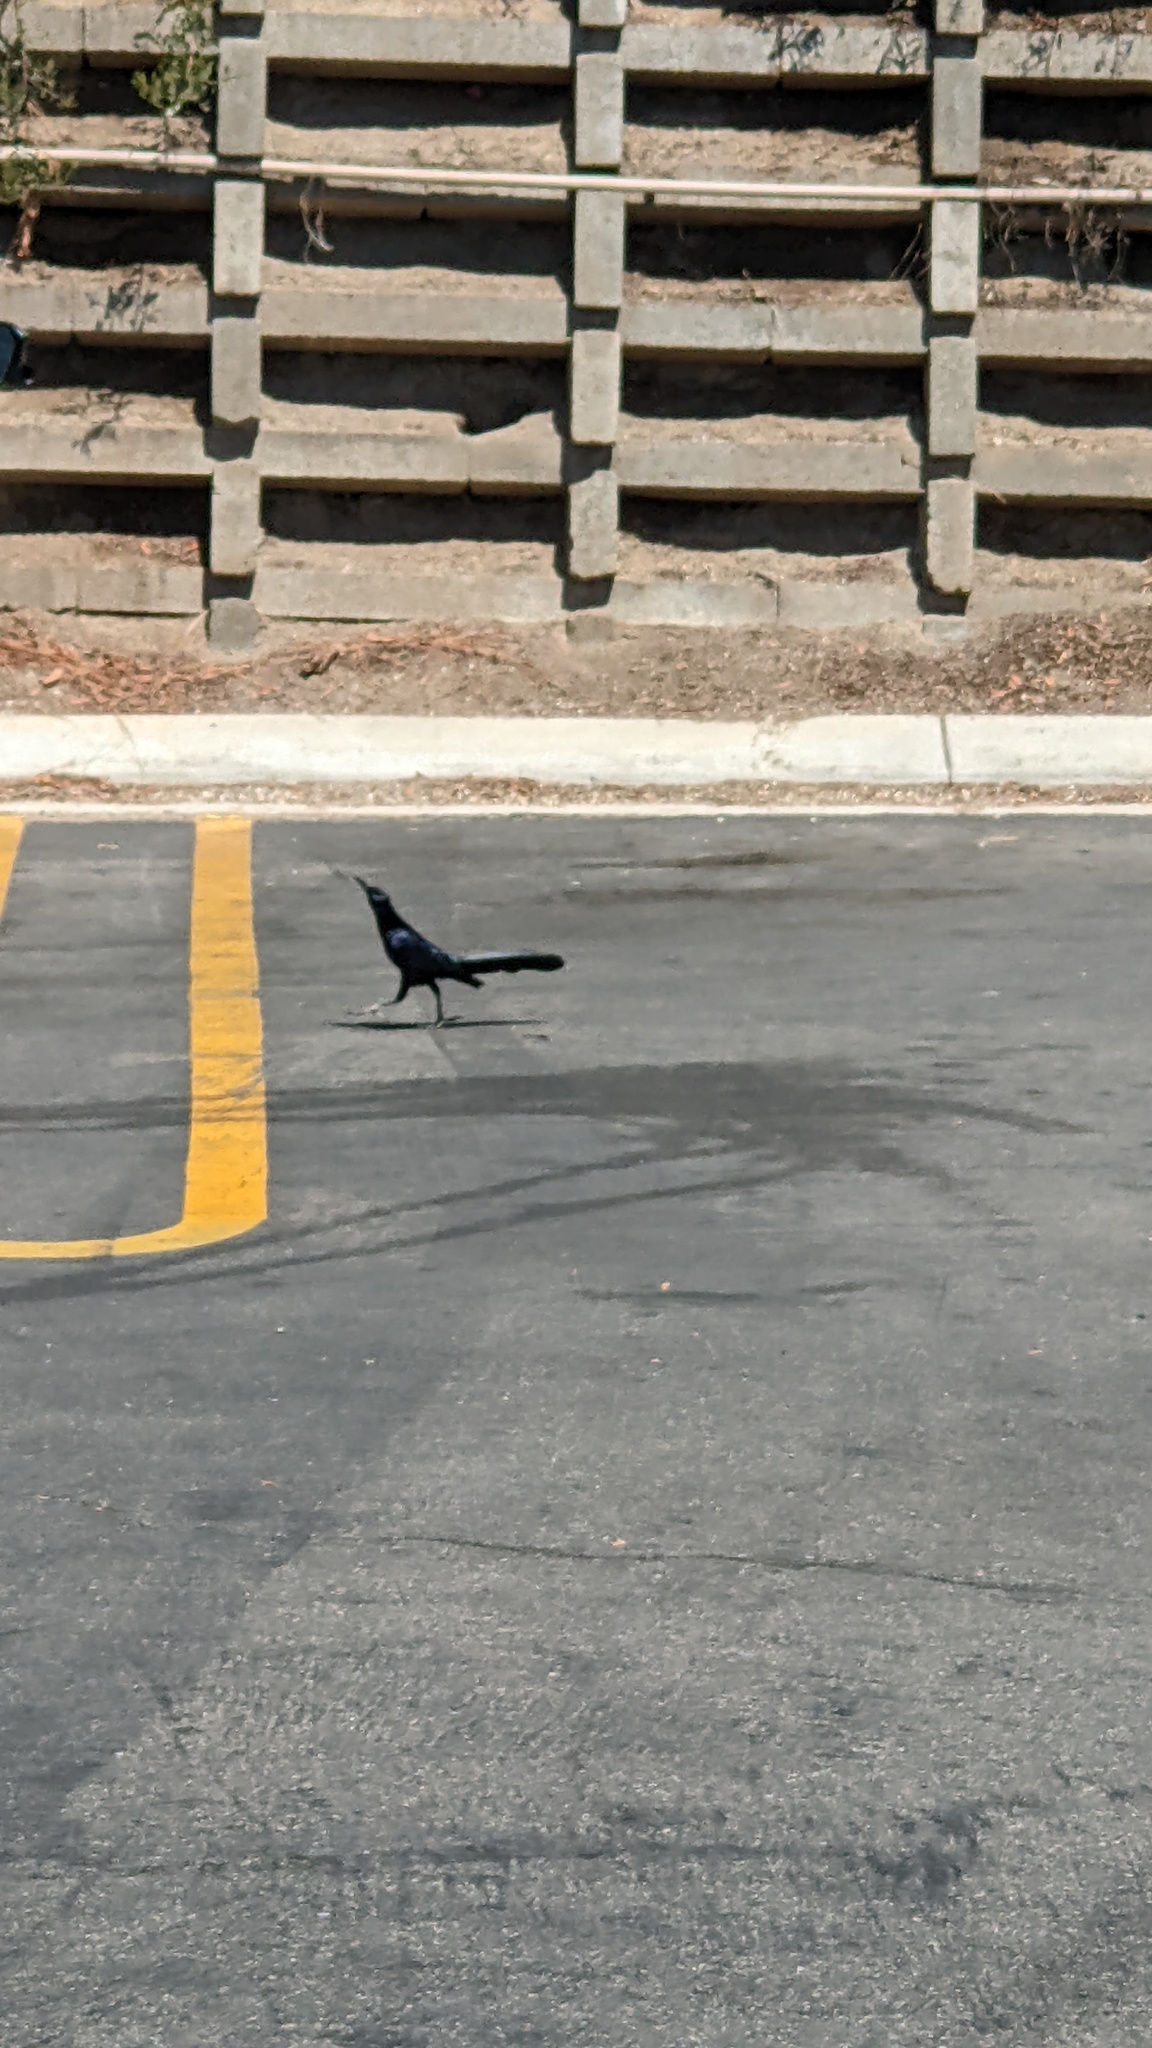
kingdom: Animalia
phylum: Chordata
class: Aves
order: Passeriformes
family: Icteridae
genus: Quiscalus
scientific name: Quiscalus mexicanus
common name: Great-tailed grackle
